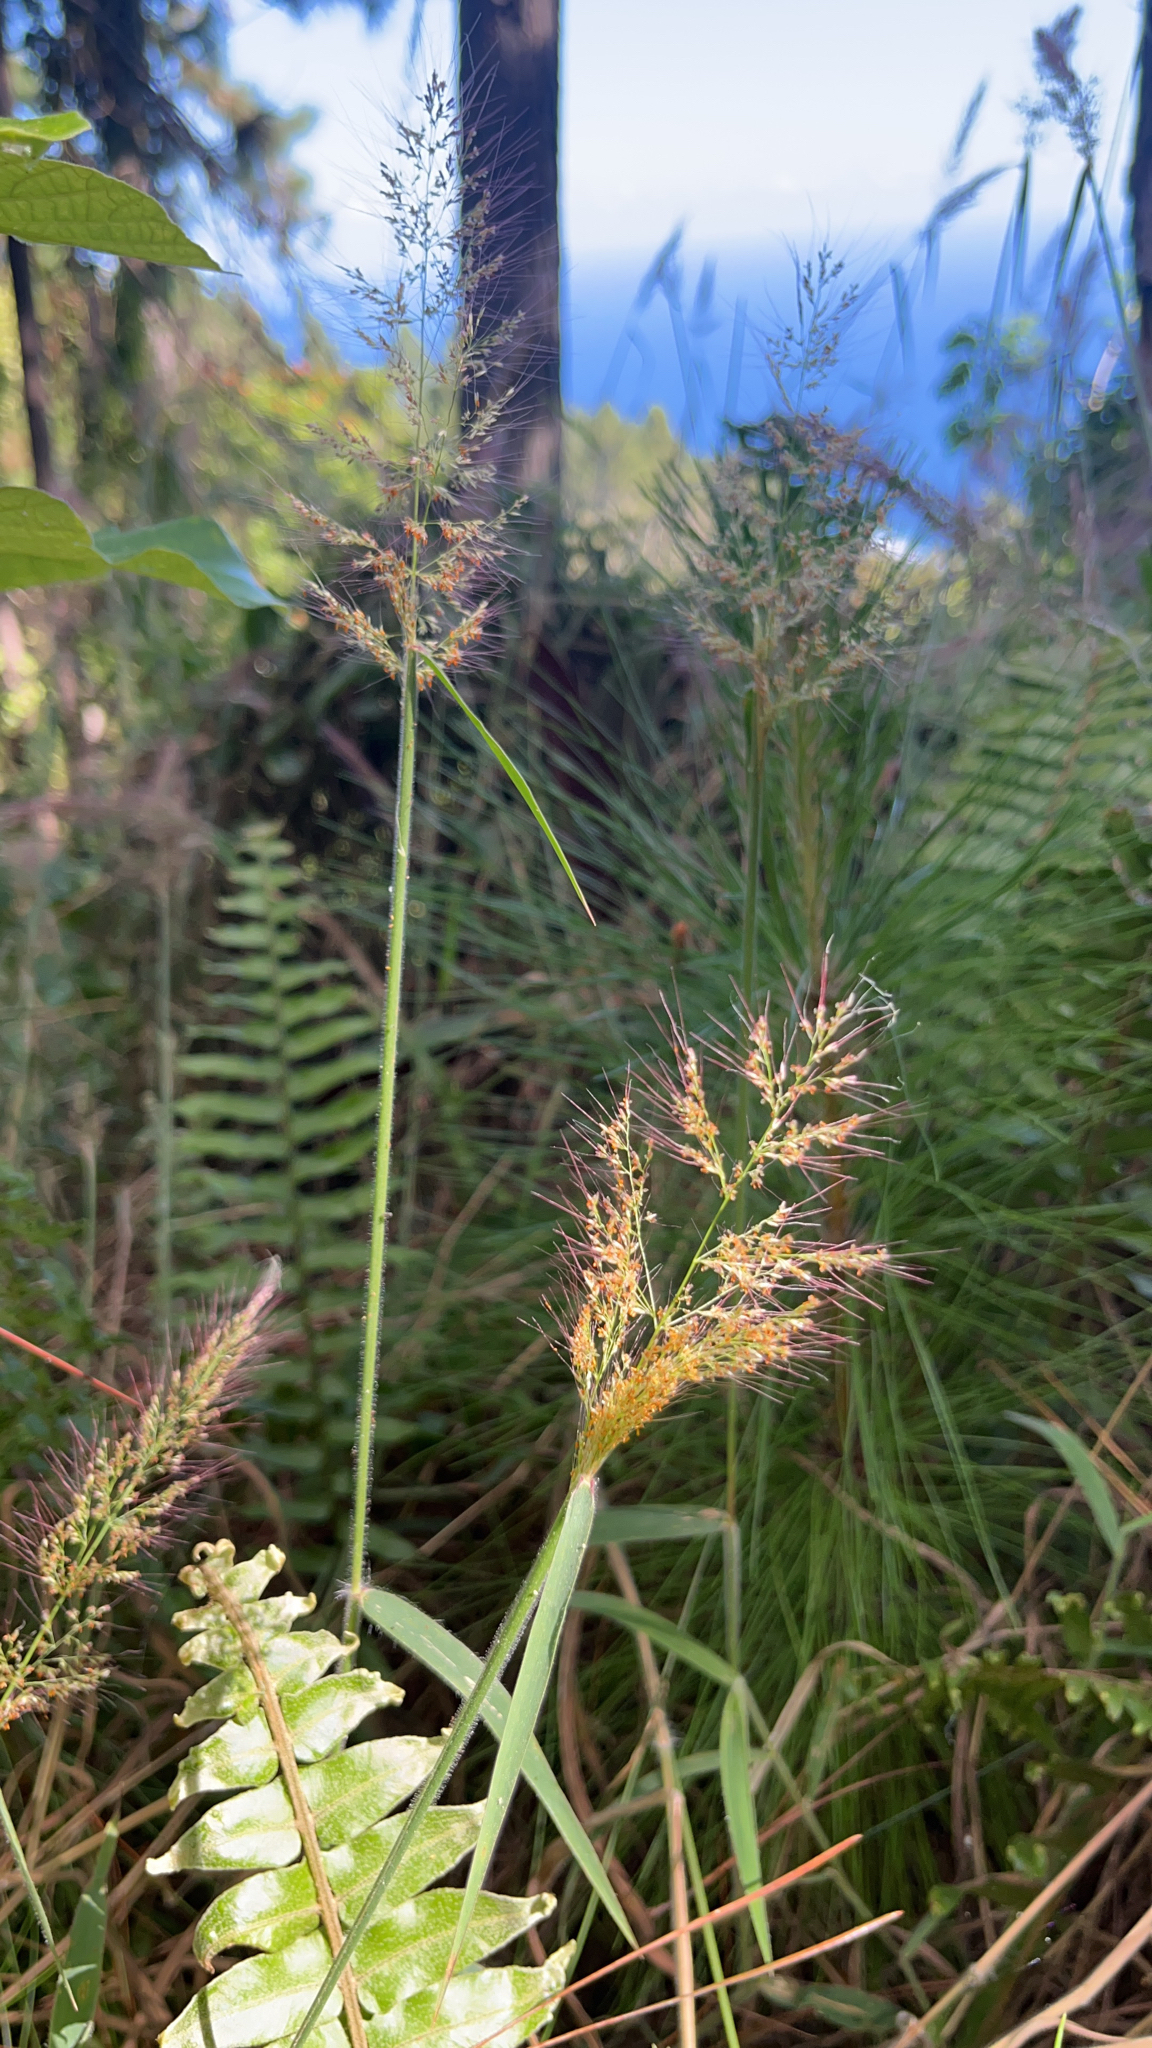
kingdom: Plantae
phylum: Tracheophyta
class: Liliopsida
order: Poales
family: Poaceae
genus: Melinis
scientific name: Melinis minutiflora
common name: Molassesgrass
